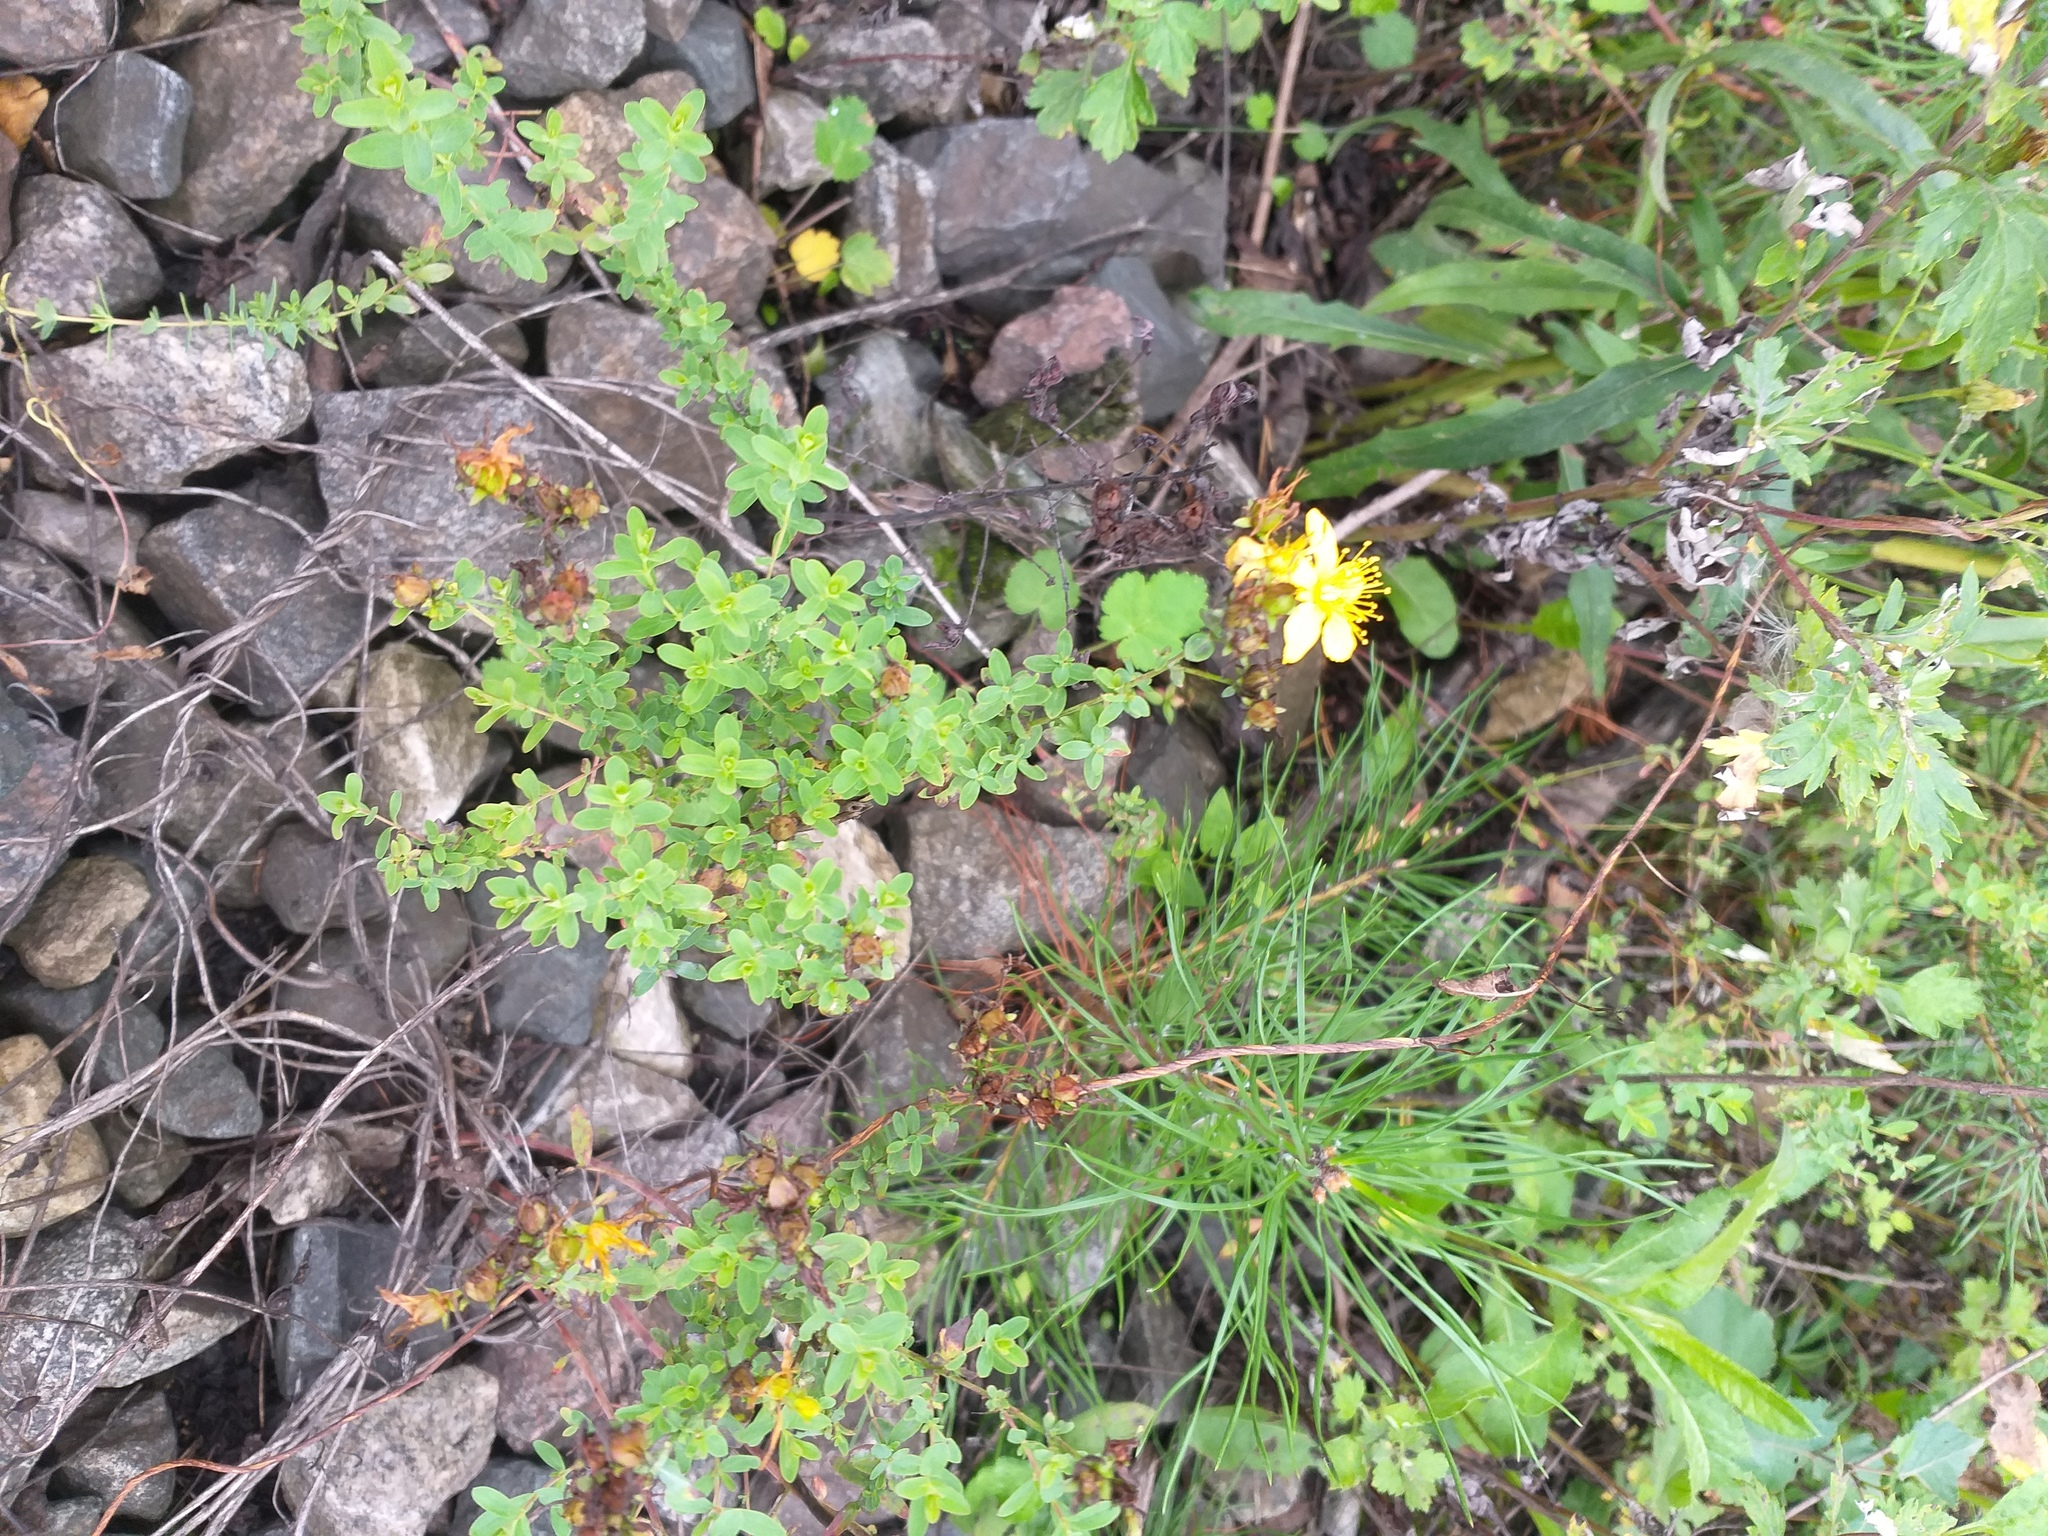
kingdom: Plantae
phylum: Tracheophyta
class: Magnoliopsida
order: Malpighiales
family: Hypericaceae
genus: Hypericum
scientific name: Hypericum perforatum
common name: Common st. johnswort
